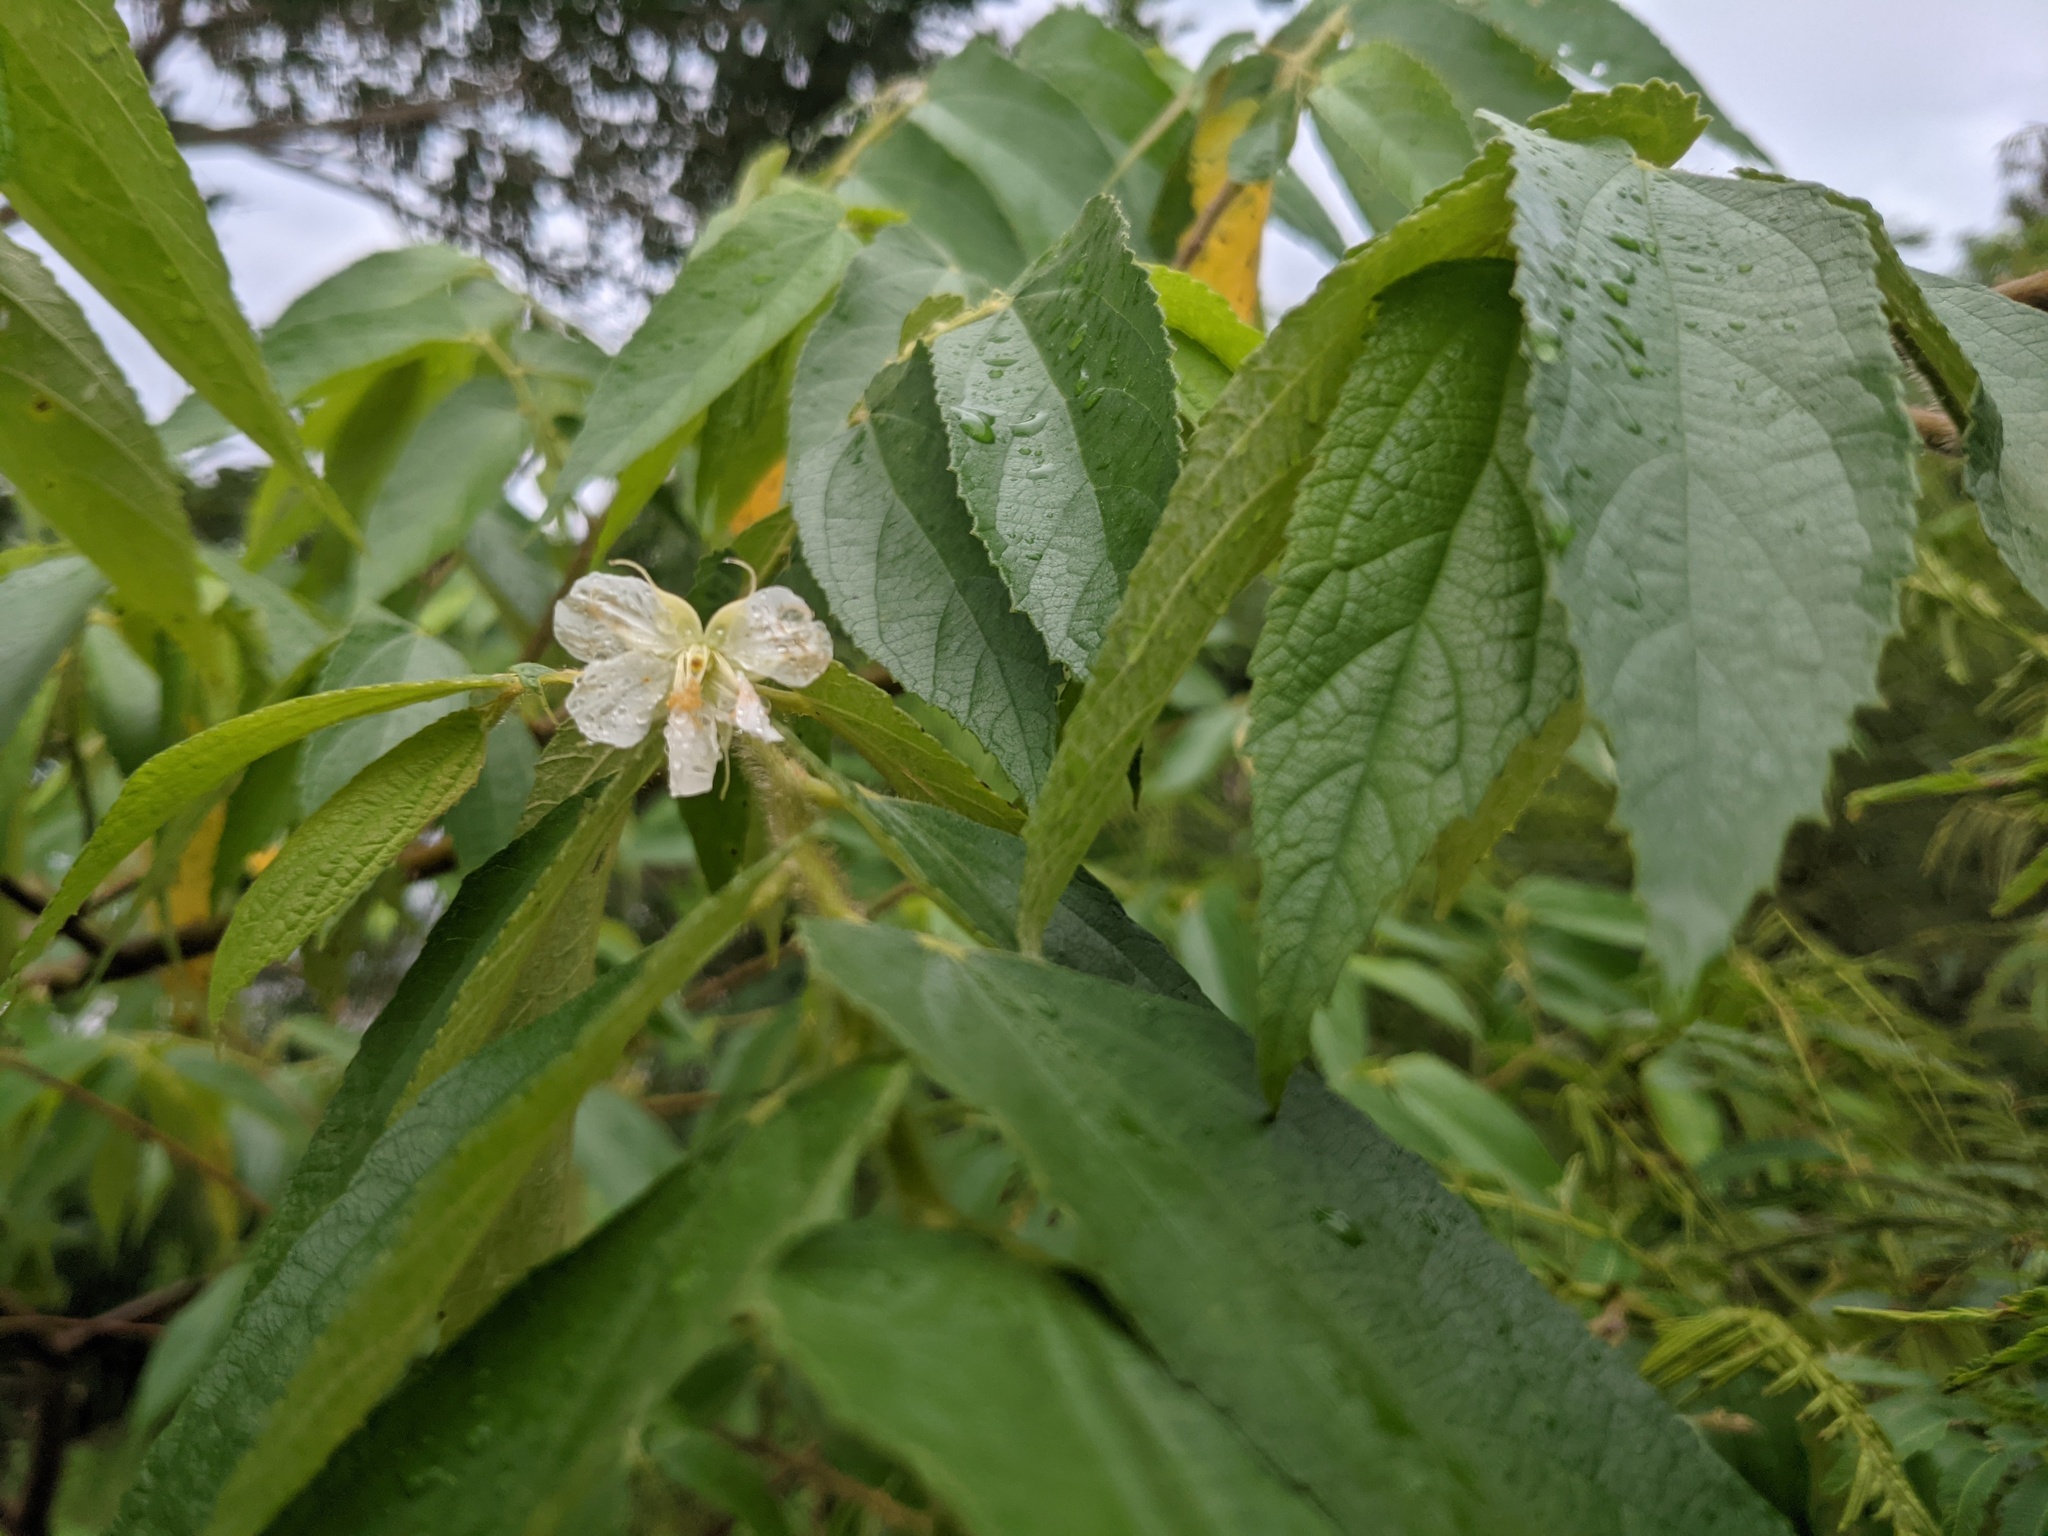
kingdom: Plantae
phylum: Tracheophyta
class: Magnoliopsida
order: Malvales
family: Muntingiaceae
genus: Muntingia
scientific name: Muntingia calabura
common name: Strawberrytree
